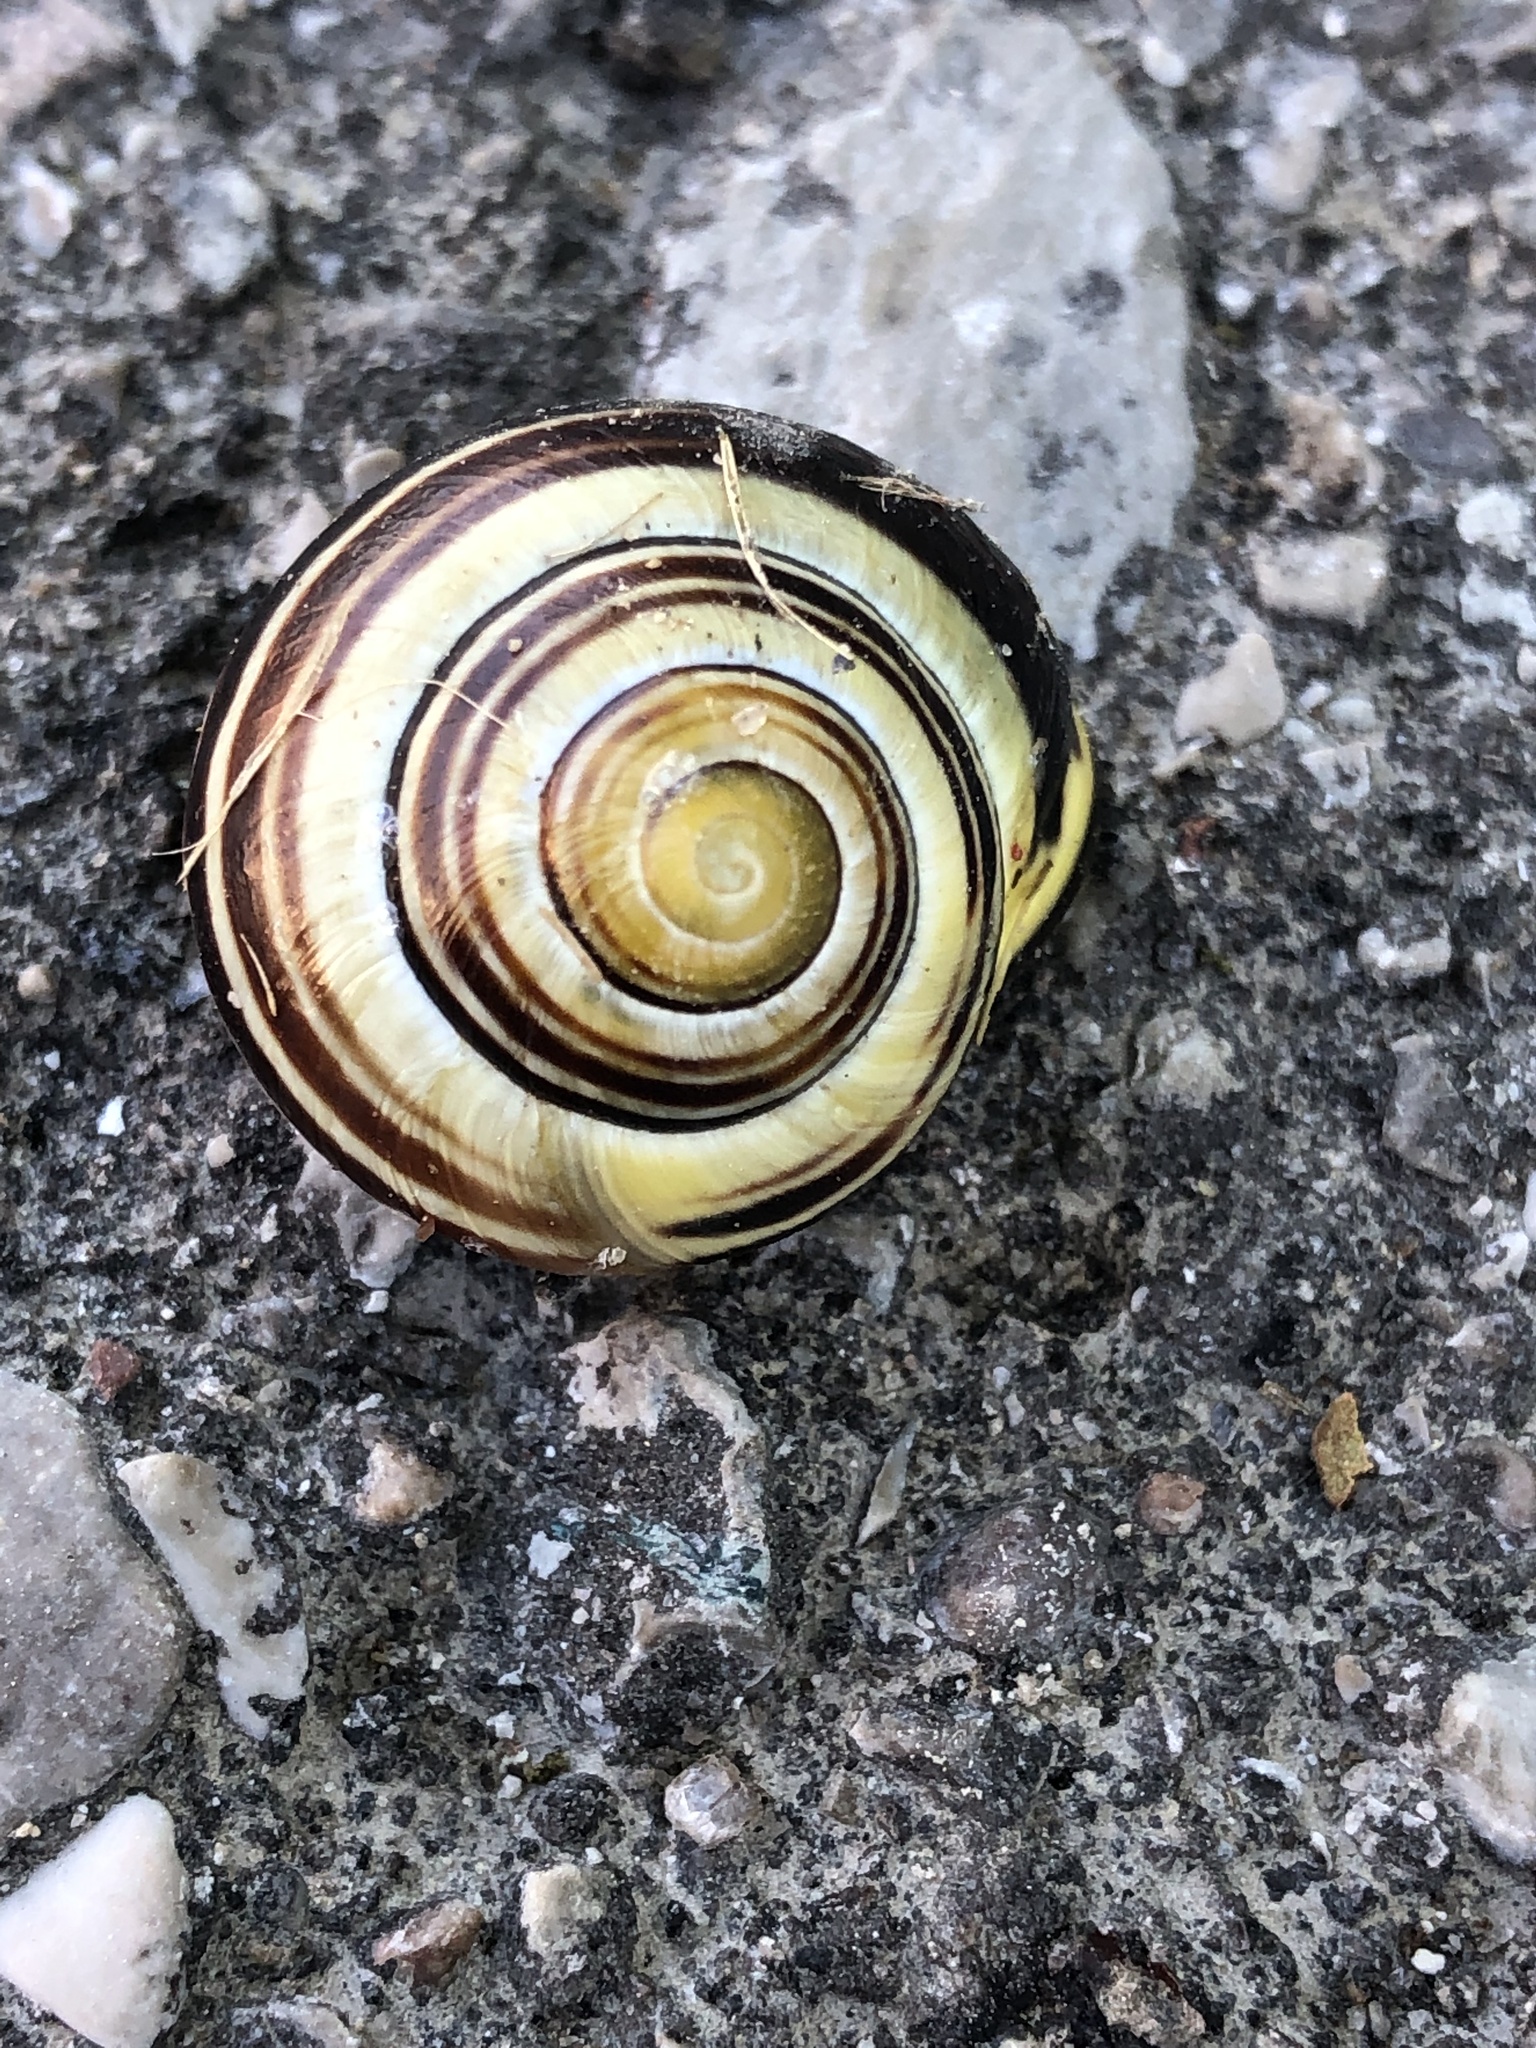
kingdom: Animalia
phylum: Mollusca
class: Gastropoda
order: Stylommatophora
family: Helicidae
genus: Cepaea
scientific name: Cepaea nemoralis
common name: Grovesnail
